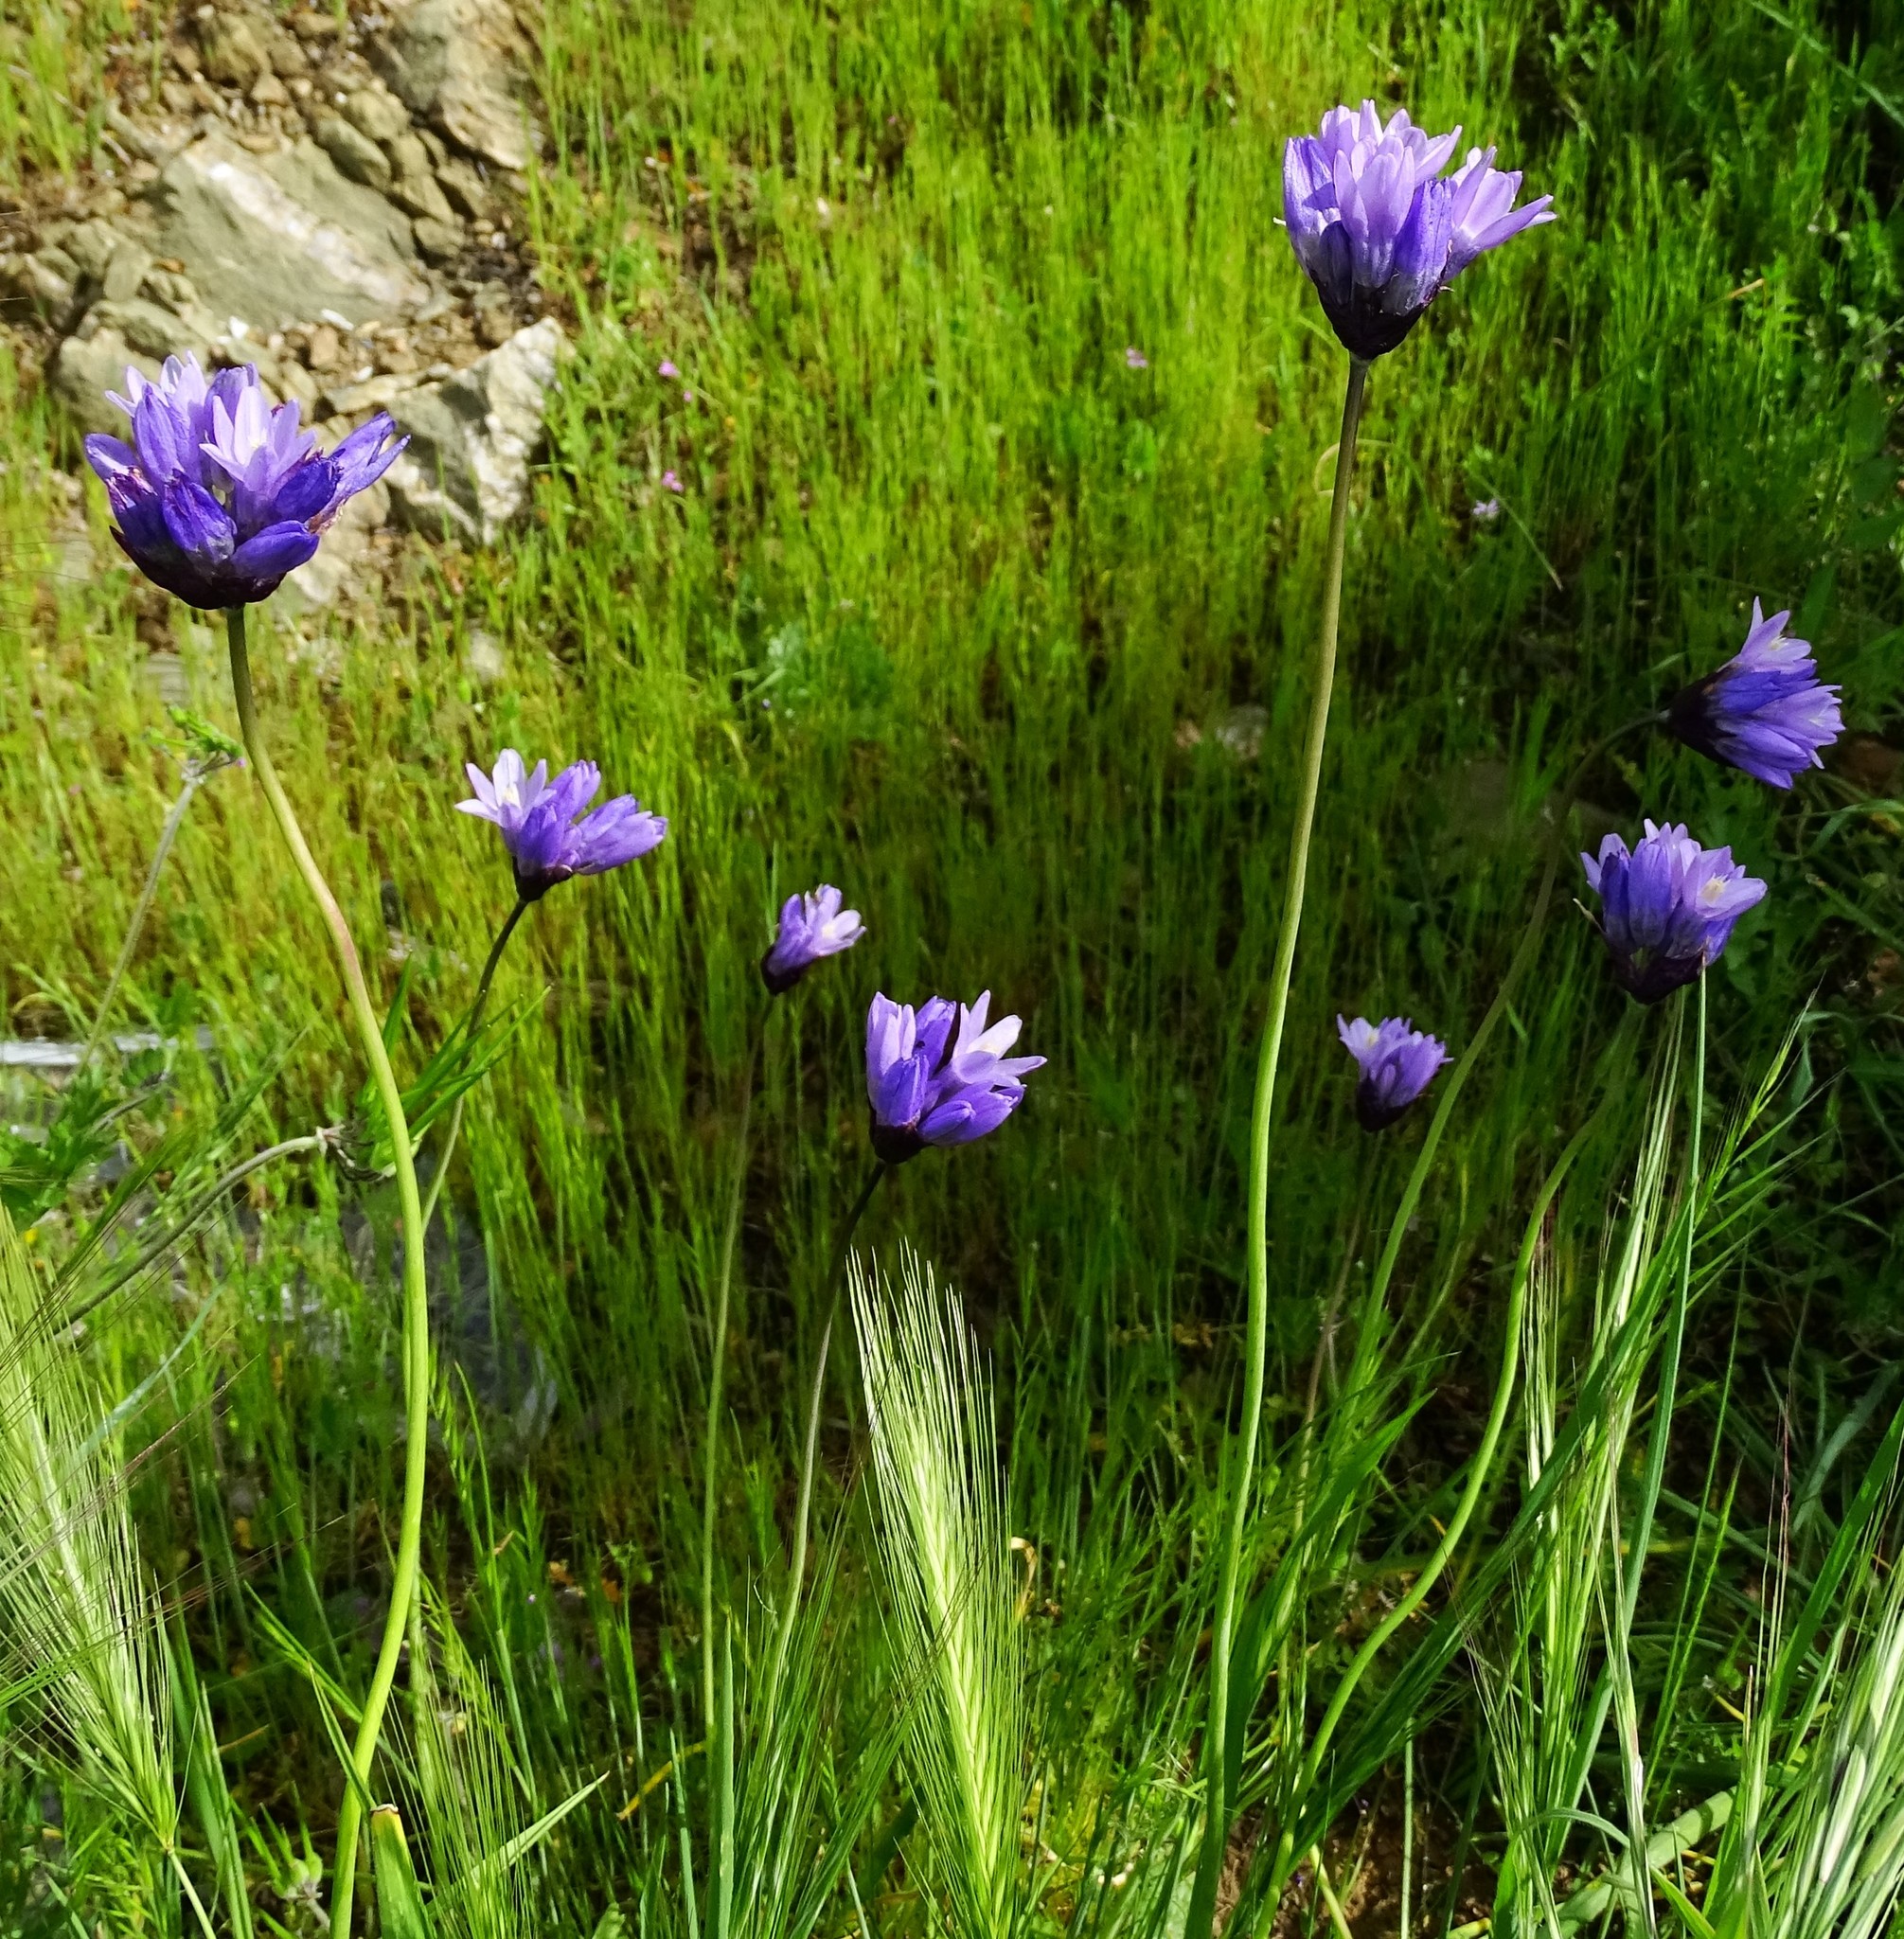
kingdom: Plantae
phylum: Tracheophyta
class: Liliopsida
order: Asparagales
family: Asparagaceae
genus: Dipterostemon
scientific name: Dipterostemon capitatus
